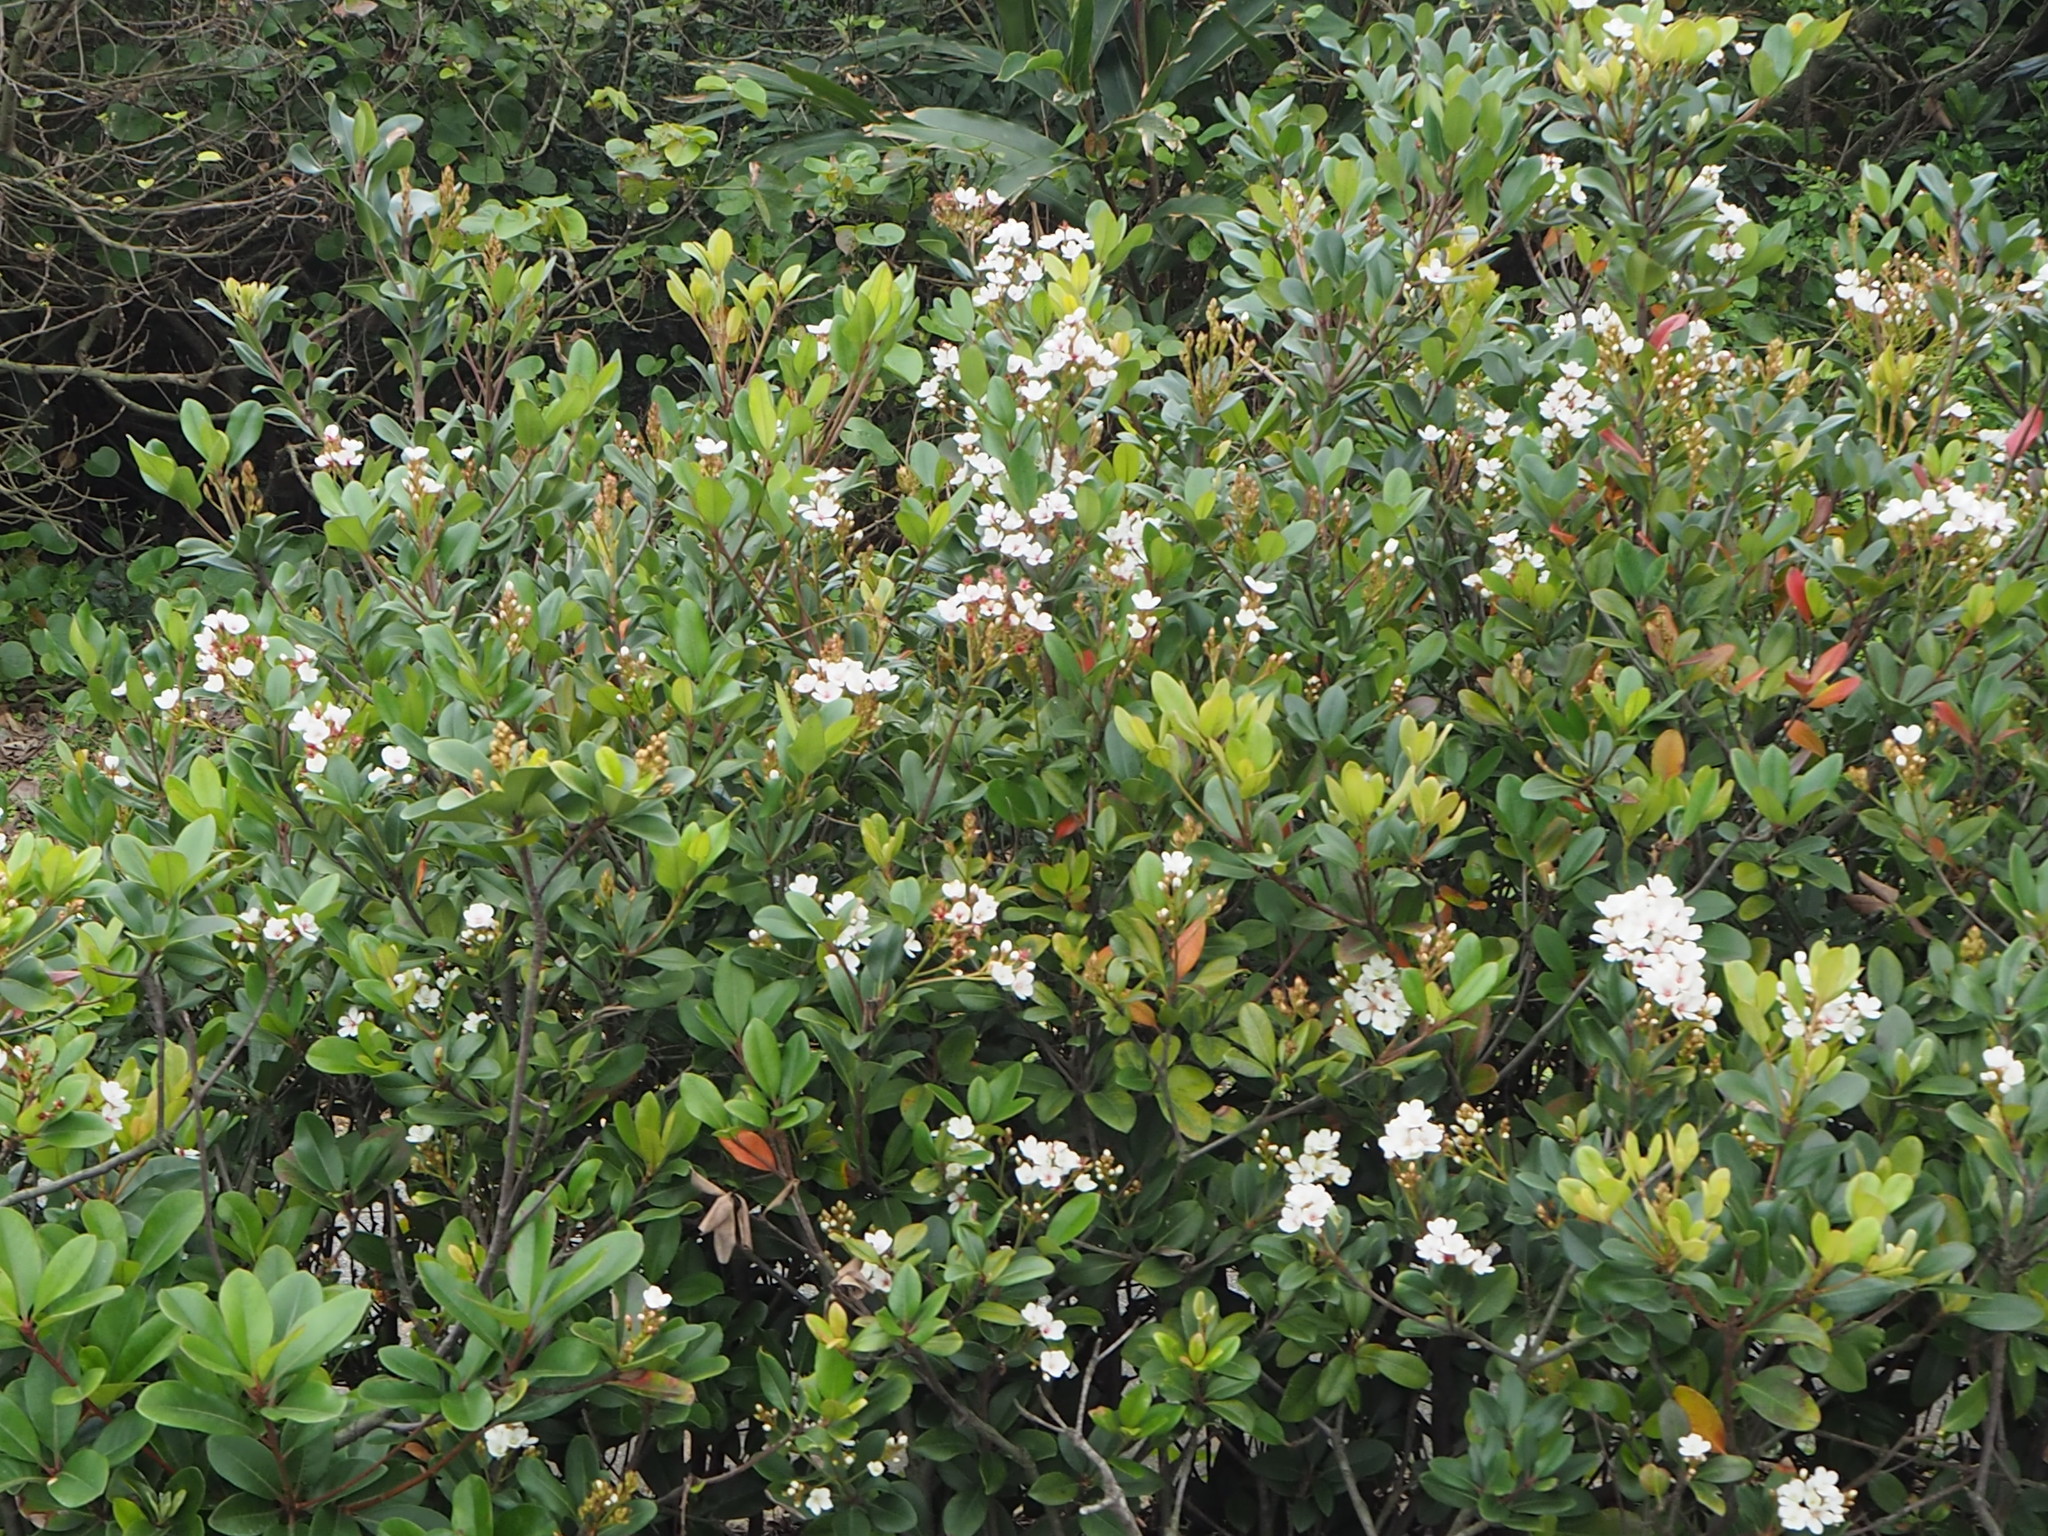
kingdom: Plantae
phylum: Tracheophyta
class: Magnoliopsida
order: Rosales
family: Rosaceae
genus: Rhaphiolepis
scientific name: Rhaphiolepis indica
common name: India-hawthorn
